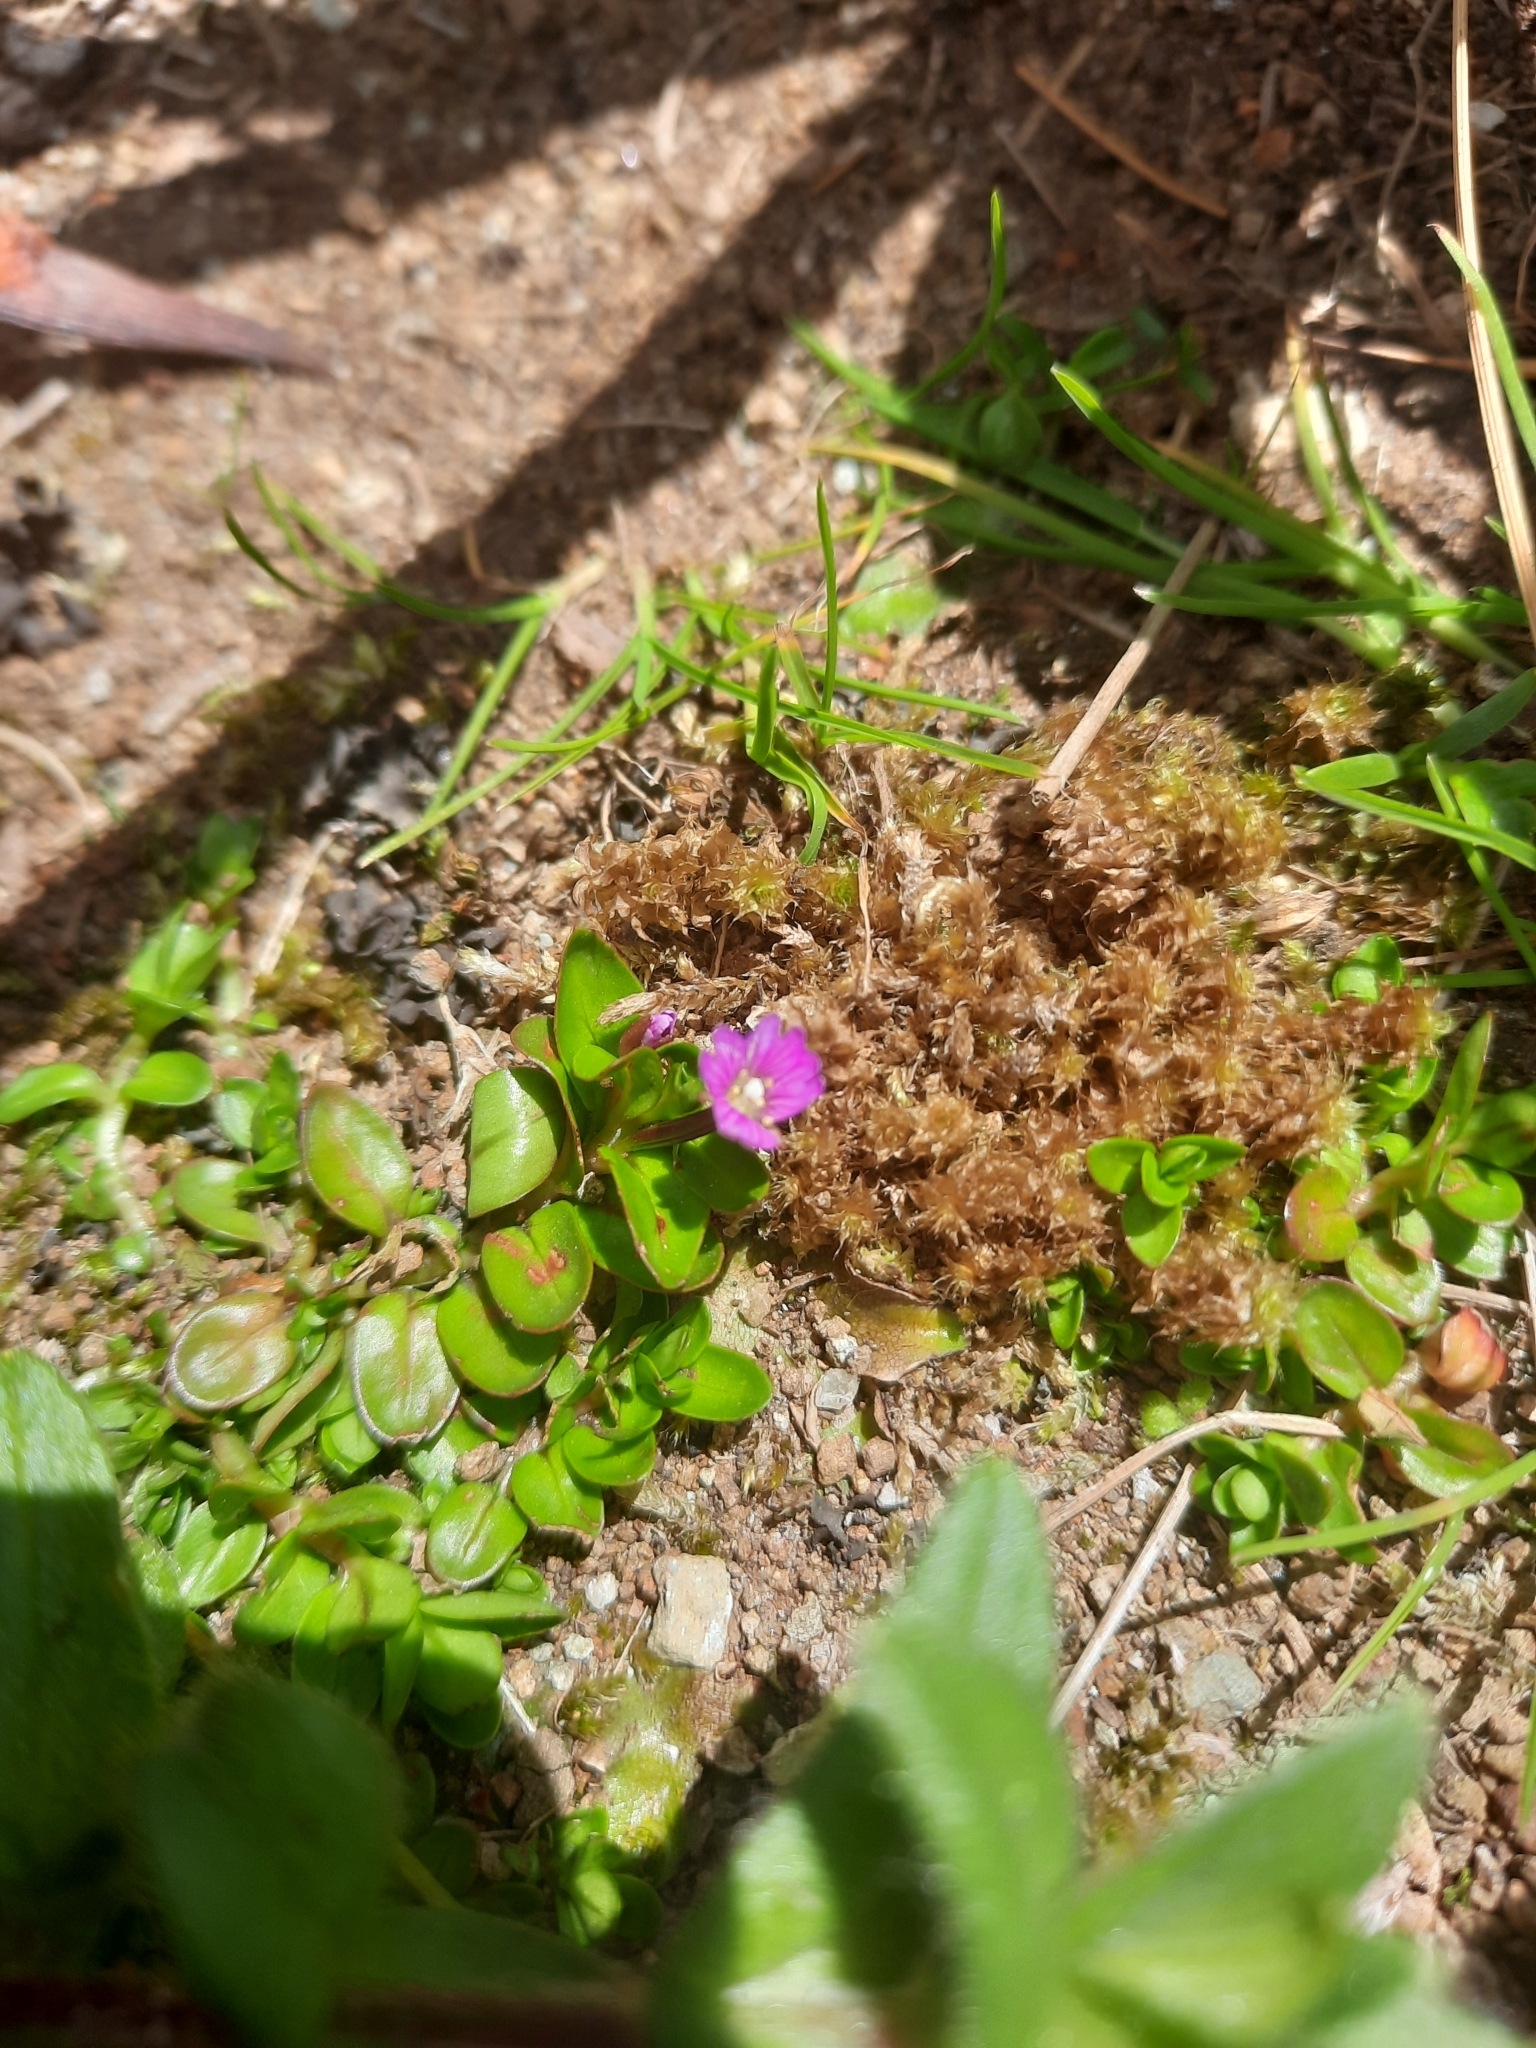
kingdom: Plantae
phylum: Tracheophyta
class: Magnoliopsida
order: Myrtales
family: Onagraceae
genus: Epilobium
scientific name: Epilobium confertifolium
